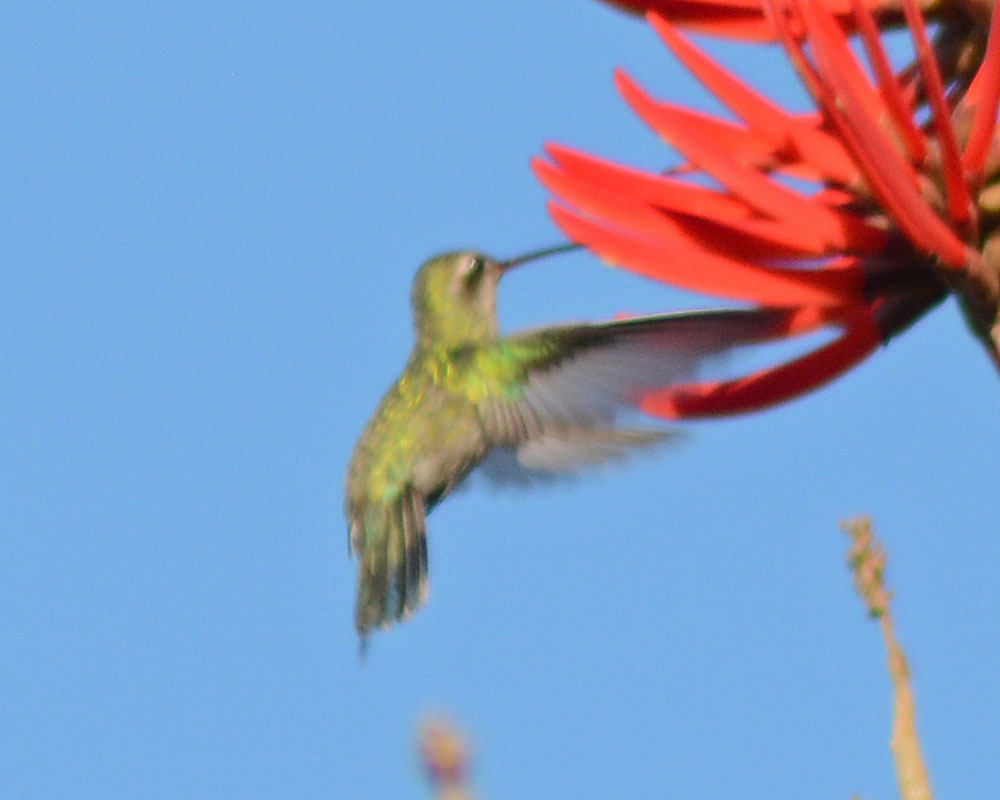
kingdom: Animalia
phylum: Chordata
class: Aves
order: Apodiformes
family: Trochilidae
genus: Cynanthus
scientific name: Cynanthus latirostris
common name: Broad-billed hummingbird
